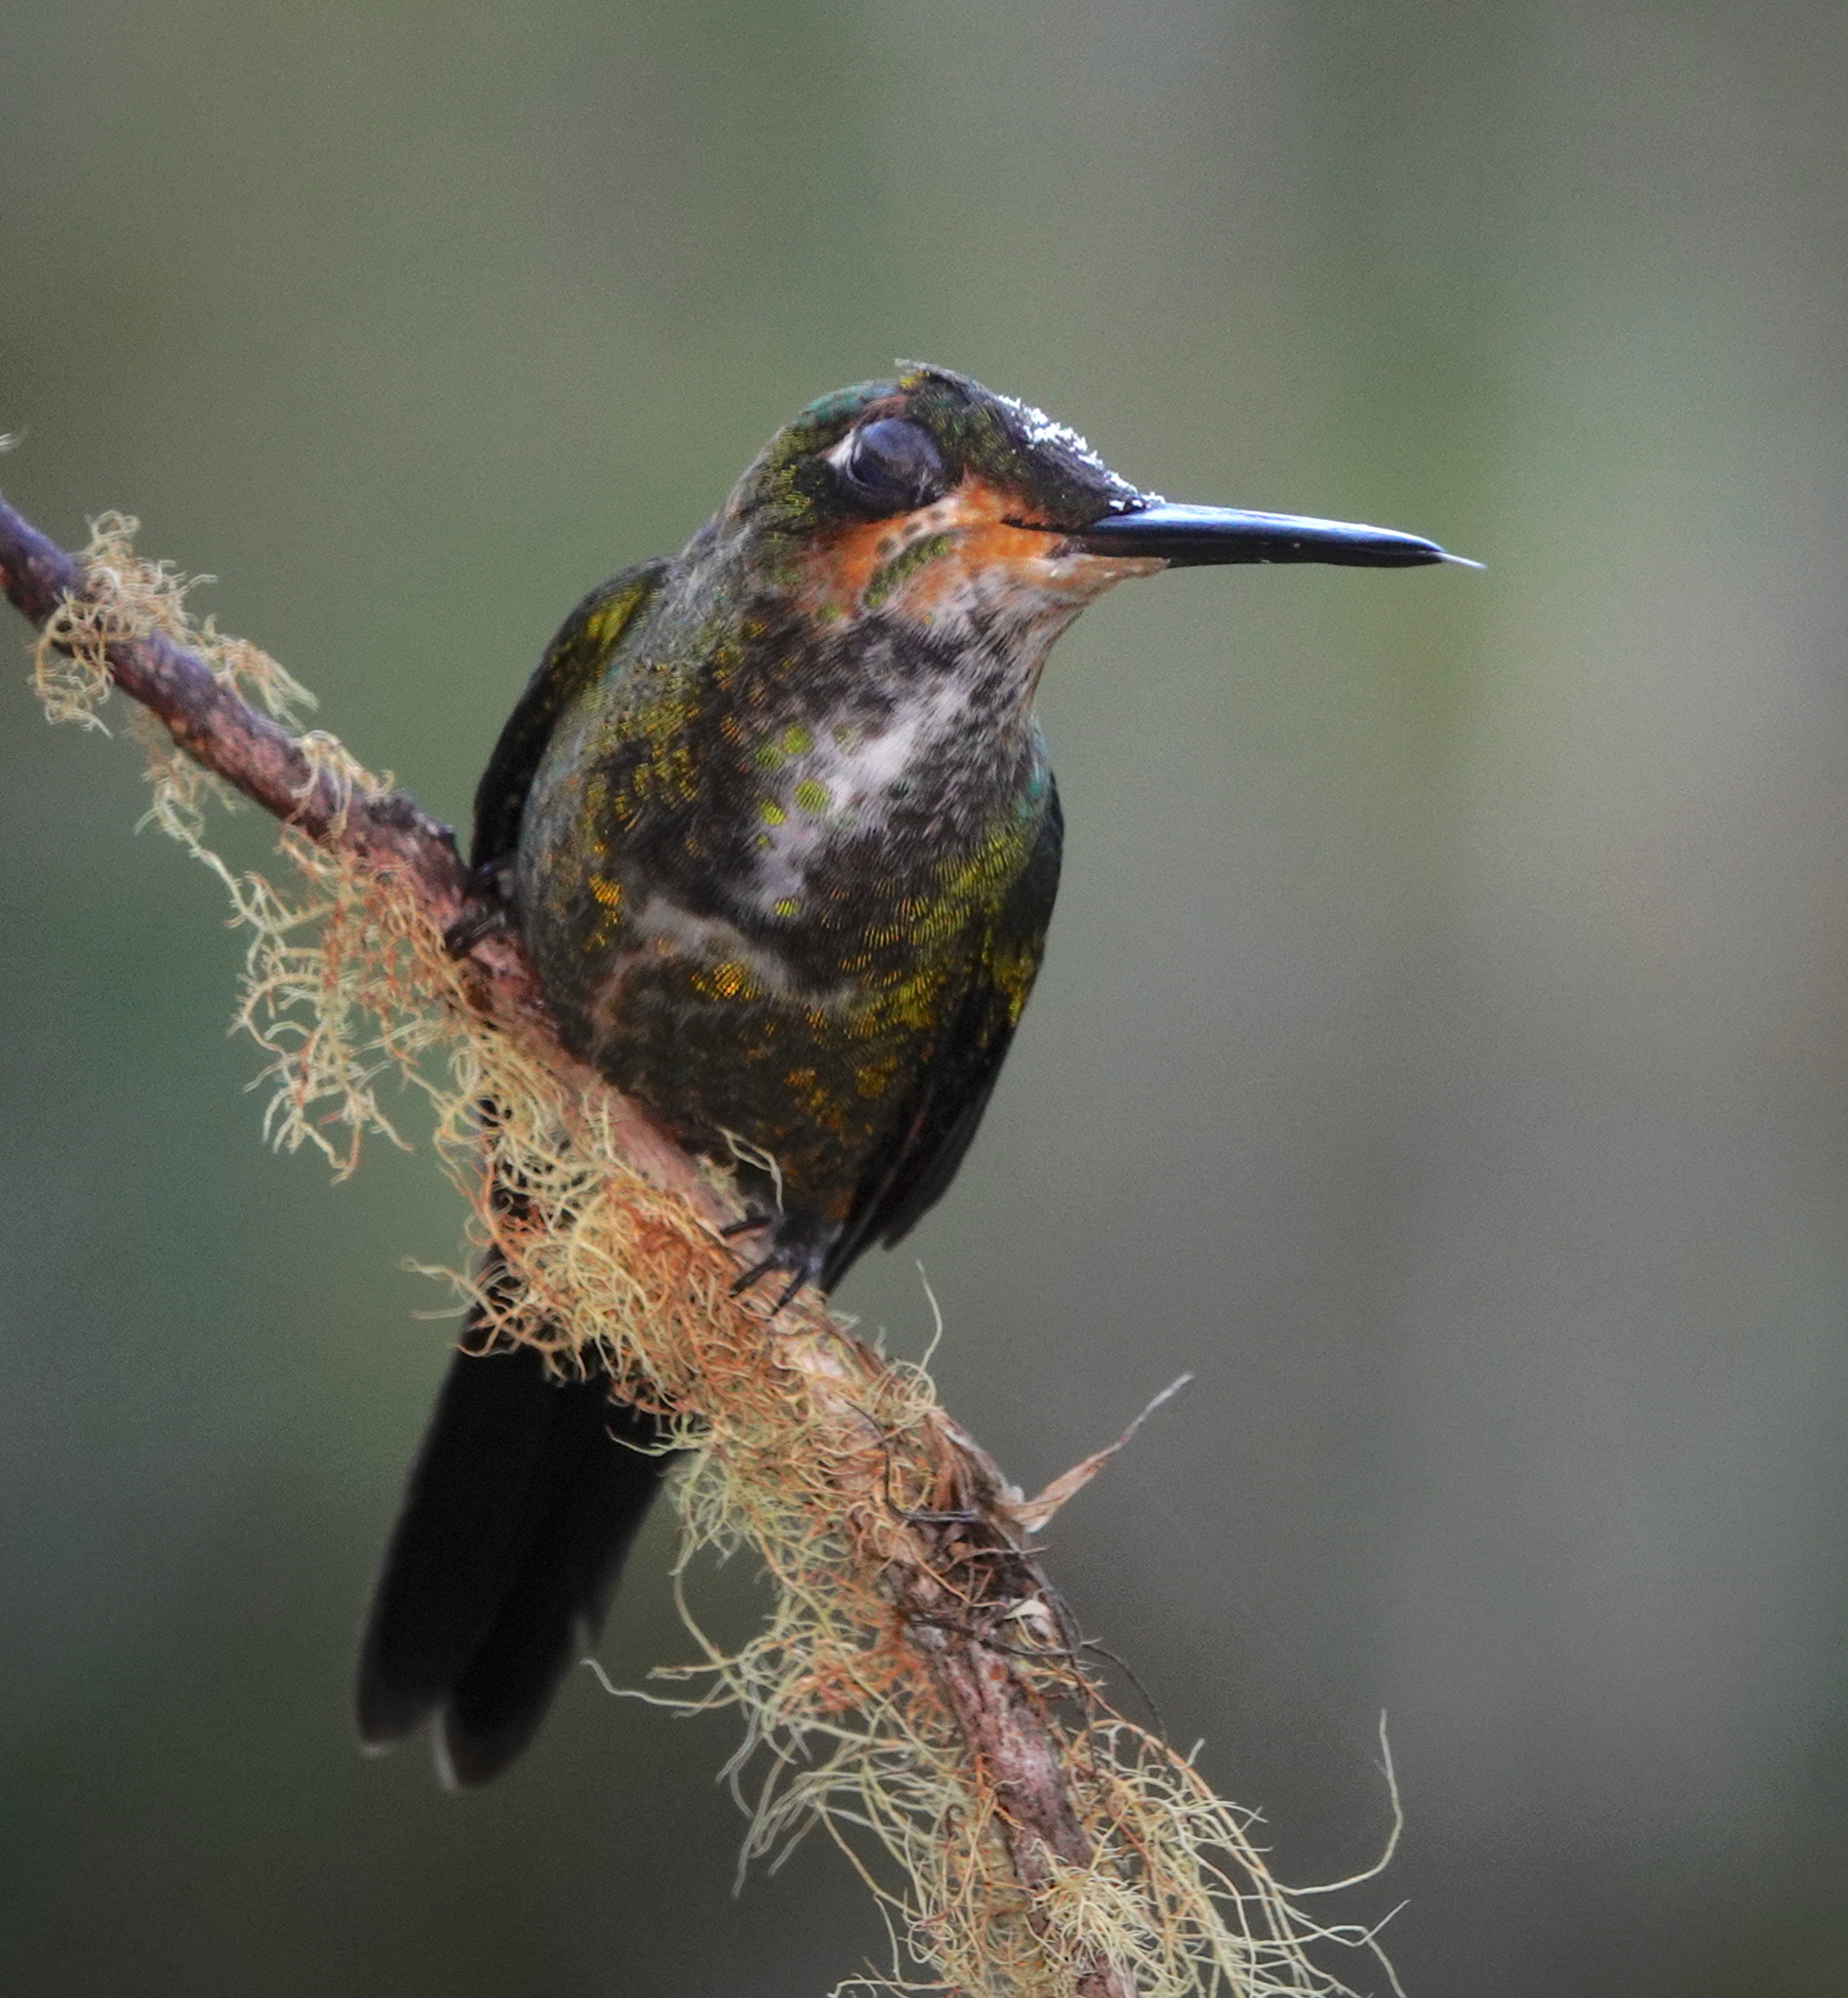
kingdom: Animalia
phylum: Chordata
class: Aves
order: Apodiformes
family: Trochilidae
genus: Heliodoxa
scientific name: Heliodoxa jacula
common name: Green-crowned brilliant
